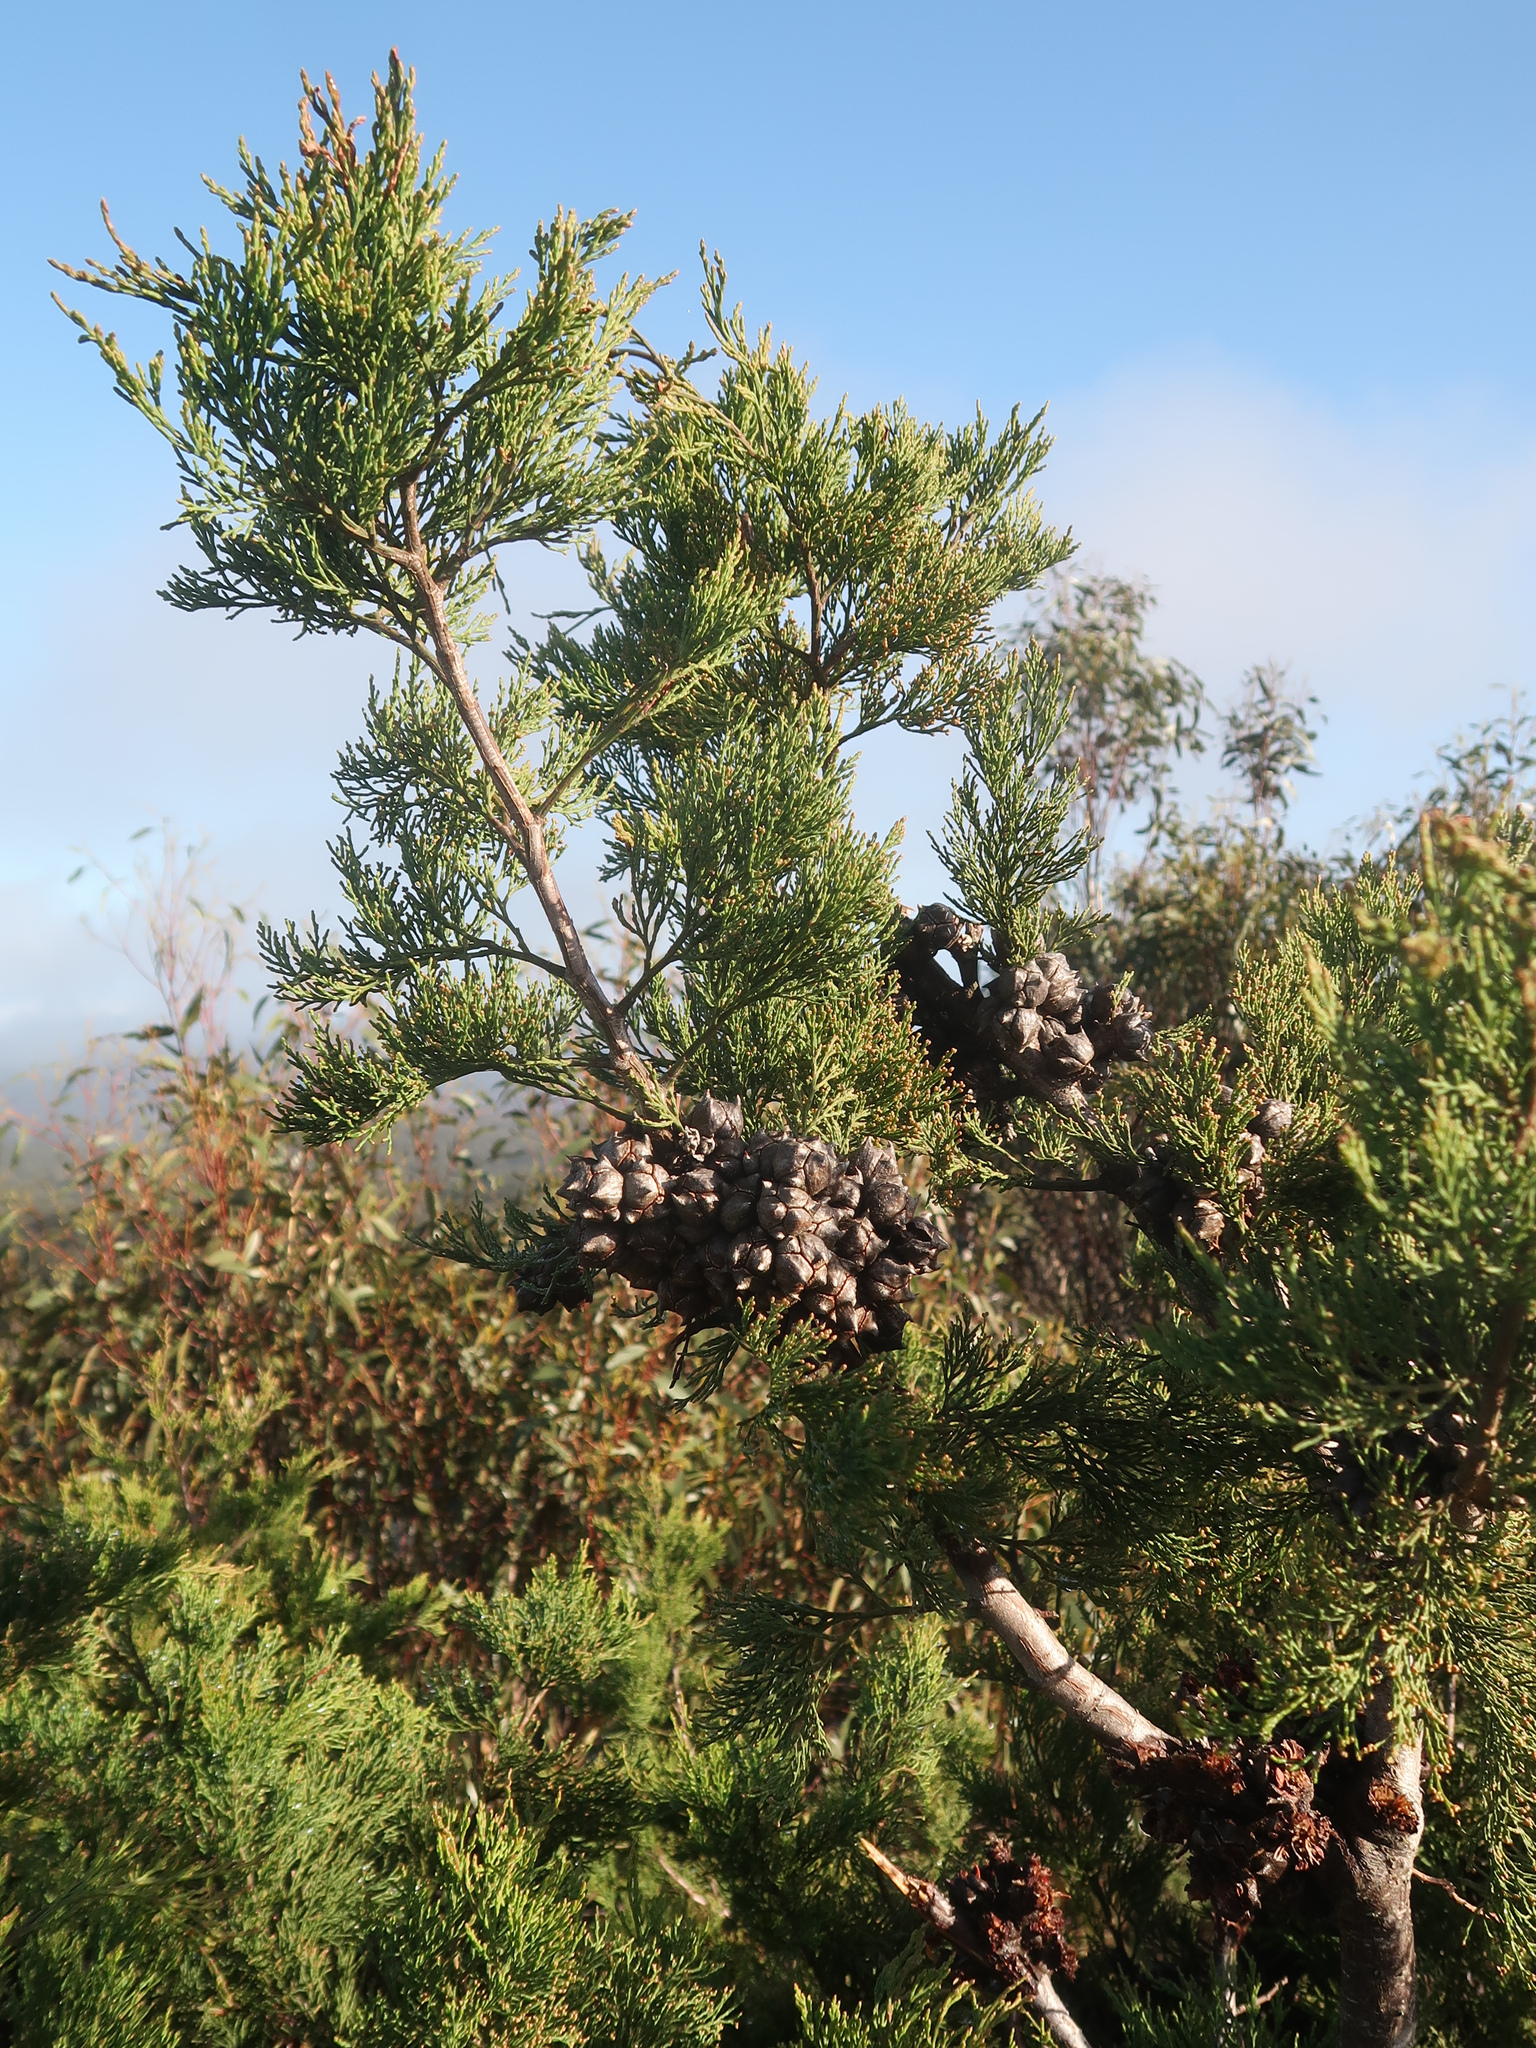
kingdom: Plantae
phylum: Tracheophyta
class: Pinopsida
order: Pinales
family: Cupressaceae
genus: Callitris
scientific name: Callitris rhomboidea
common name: Illawara mountain pine
